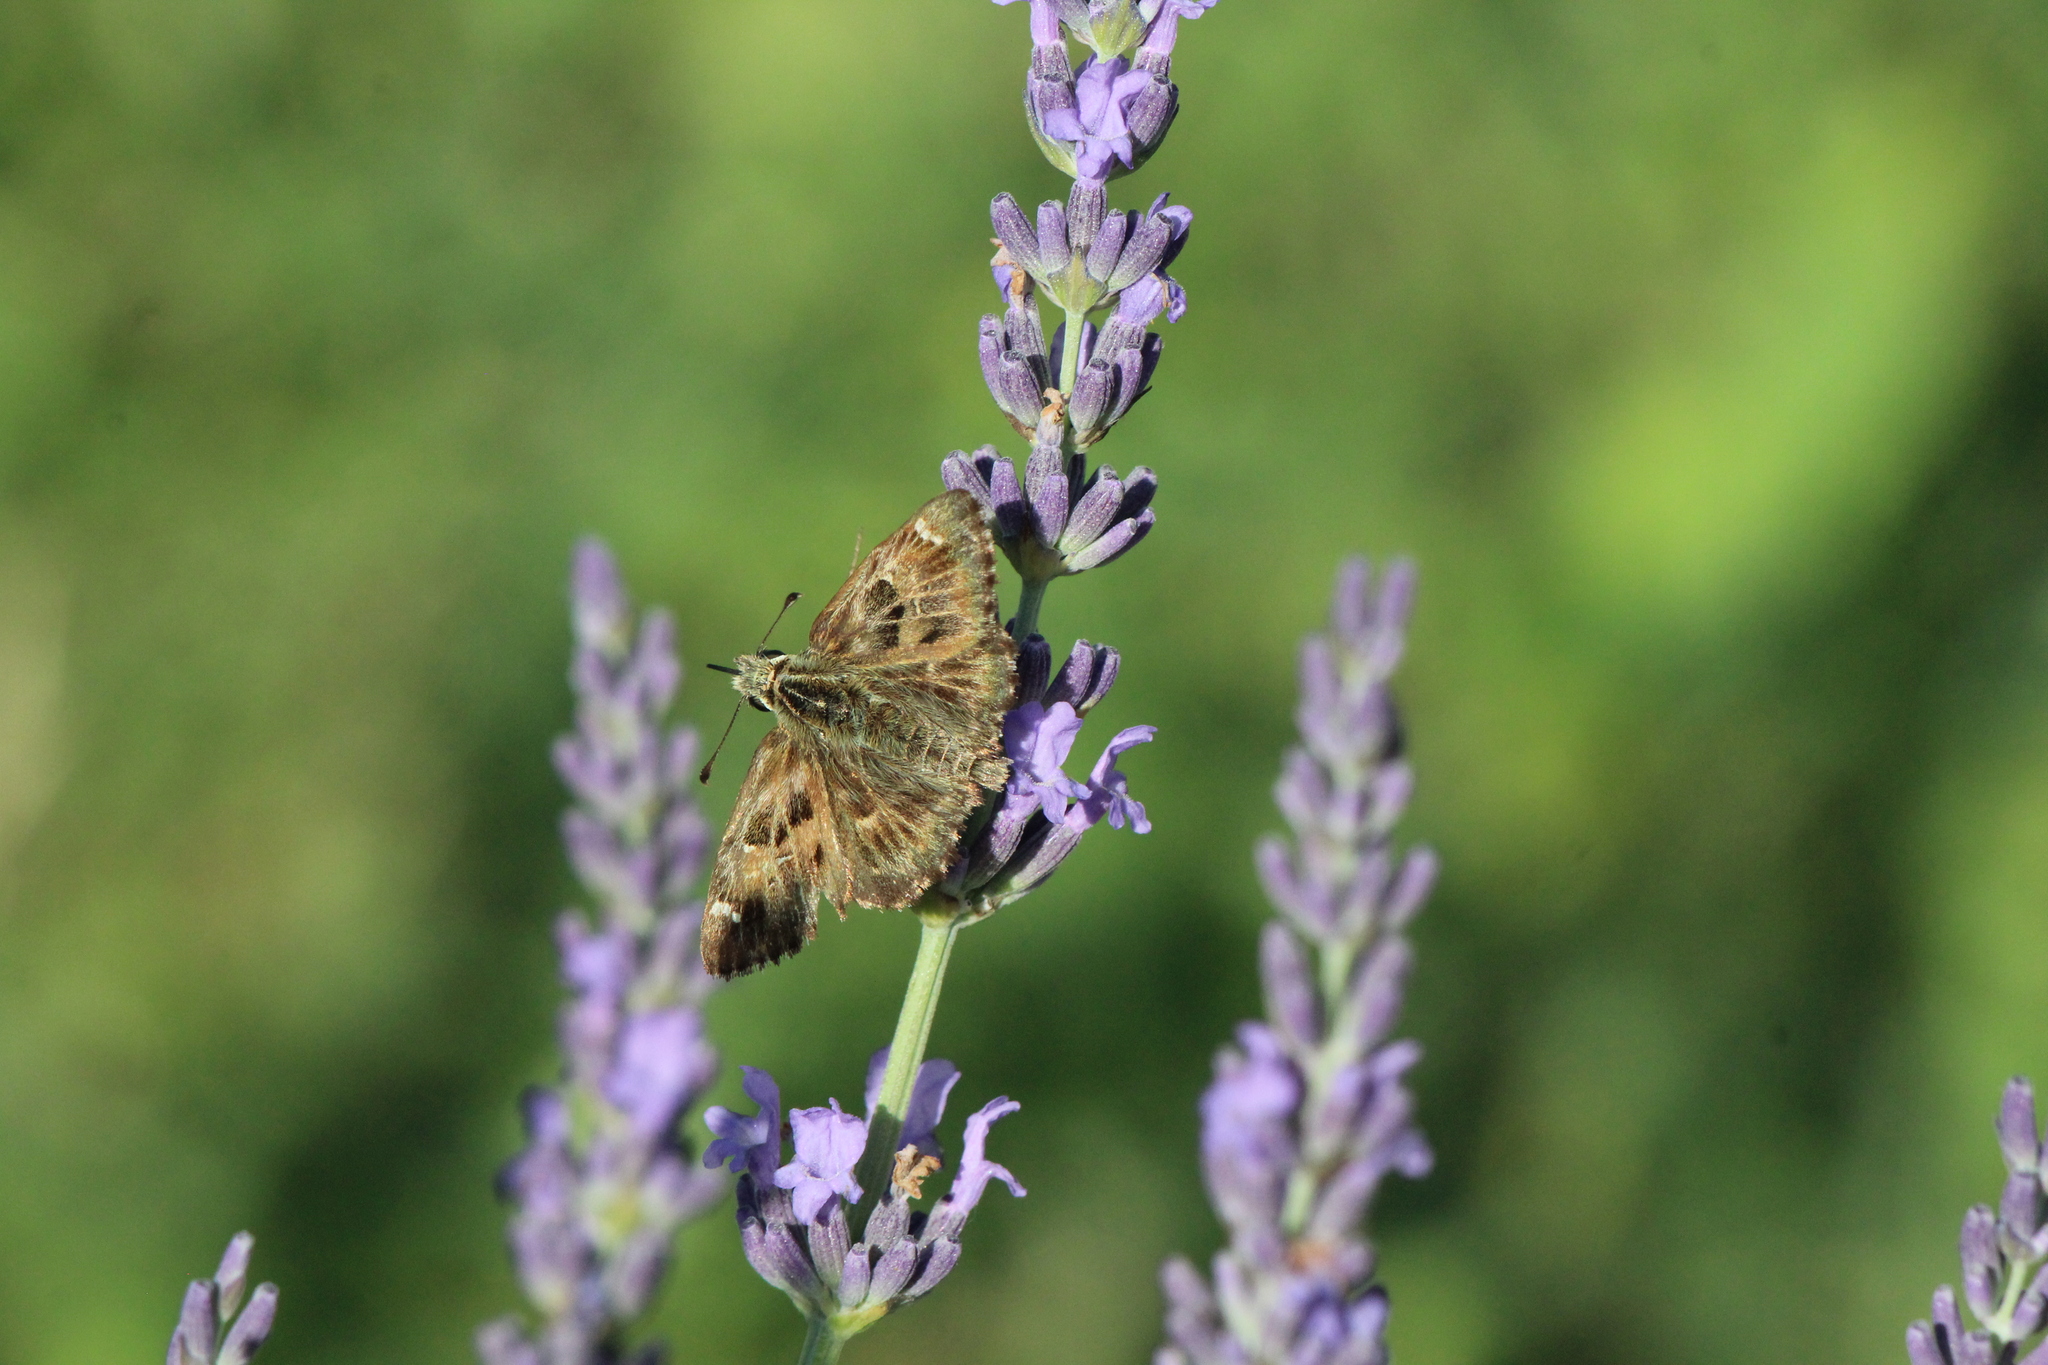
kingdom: Animalia
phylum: Arthropoda
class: Insecta
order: Lepidoptera
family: Hesperiidae
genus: Carcharodus
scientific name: Carcharodus alceae
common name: Mallow skipper
